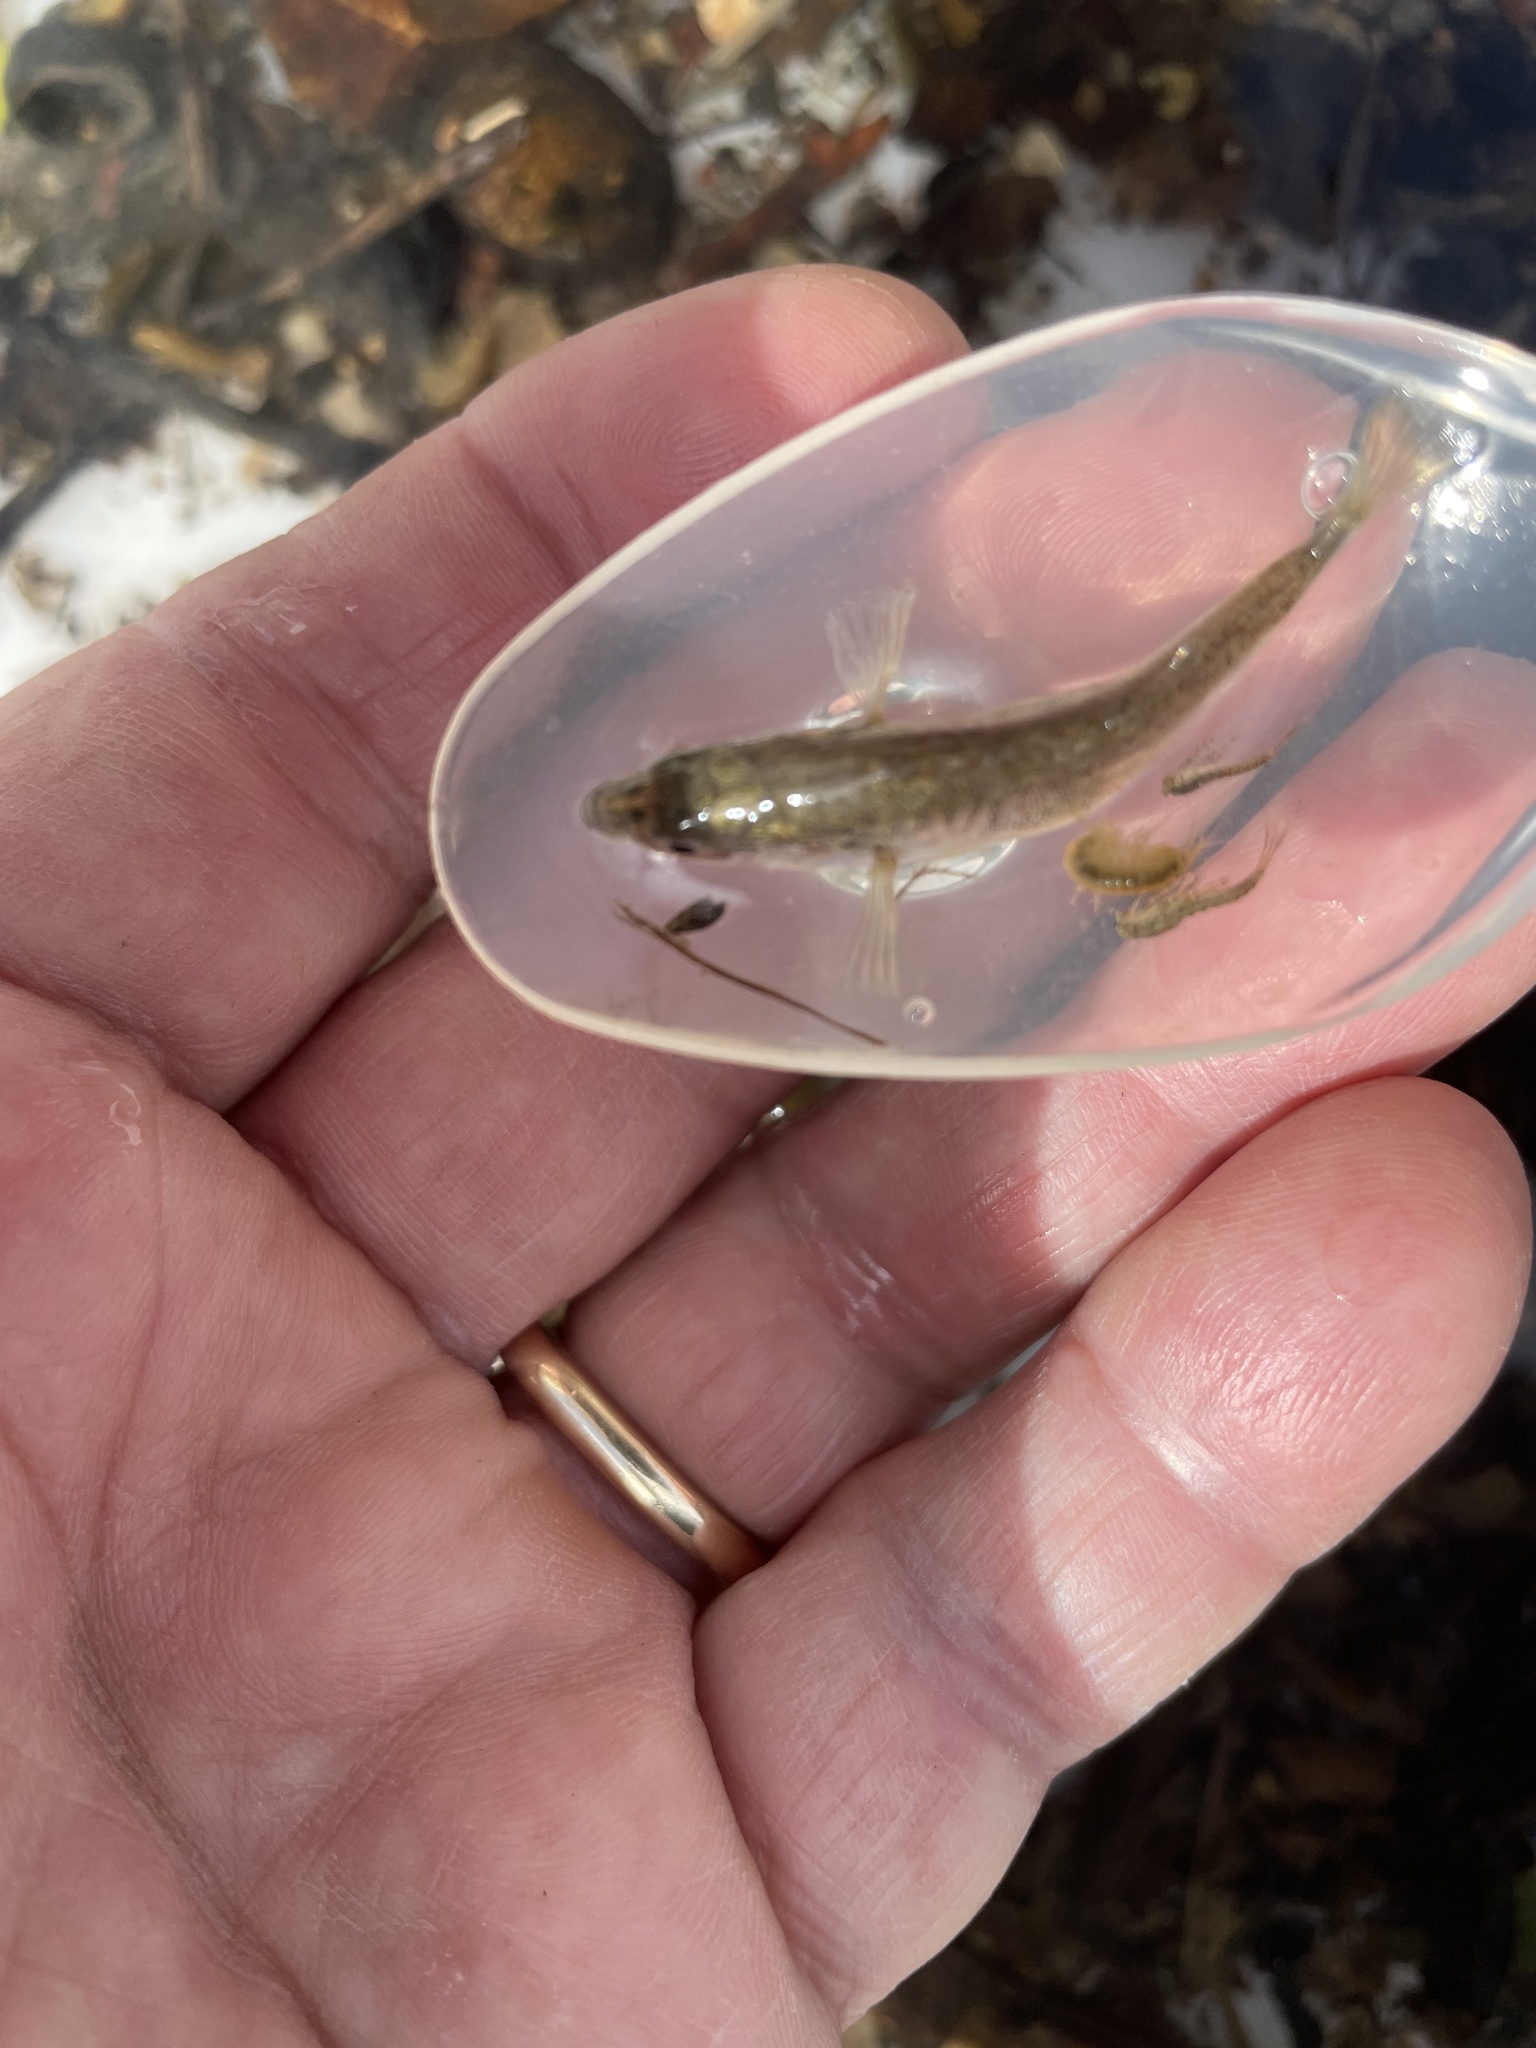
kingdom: Animalia
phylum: Chordata
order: Gasterosteiformes
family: Gasterosteidae
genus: Gasterosteus
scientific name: Gasterosteus aculeatus
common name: Three-spined stickleback
